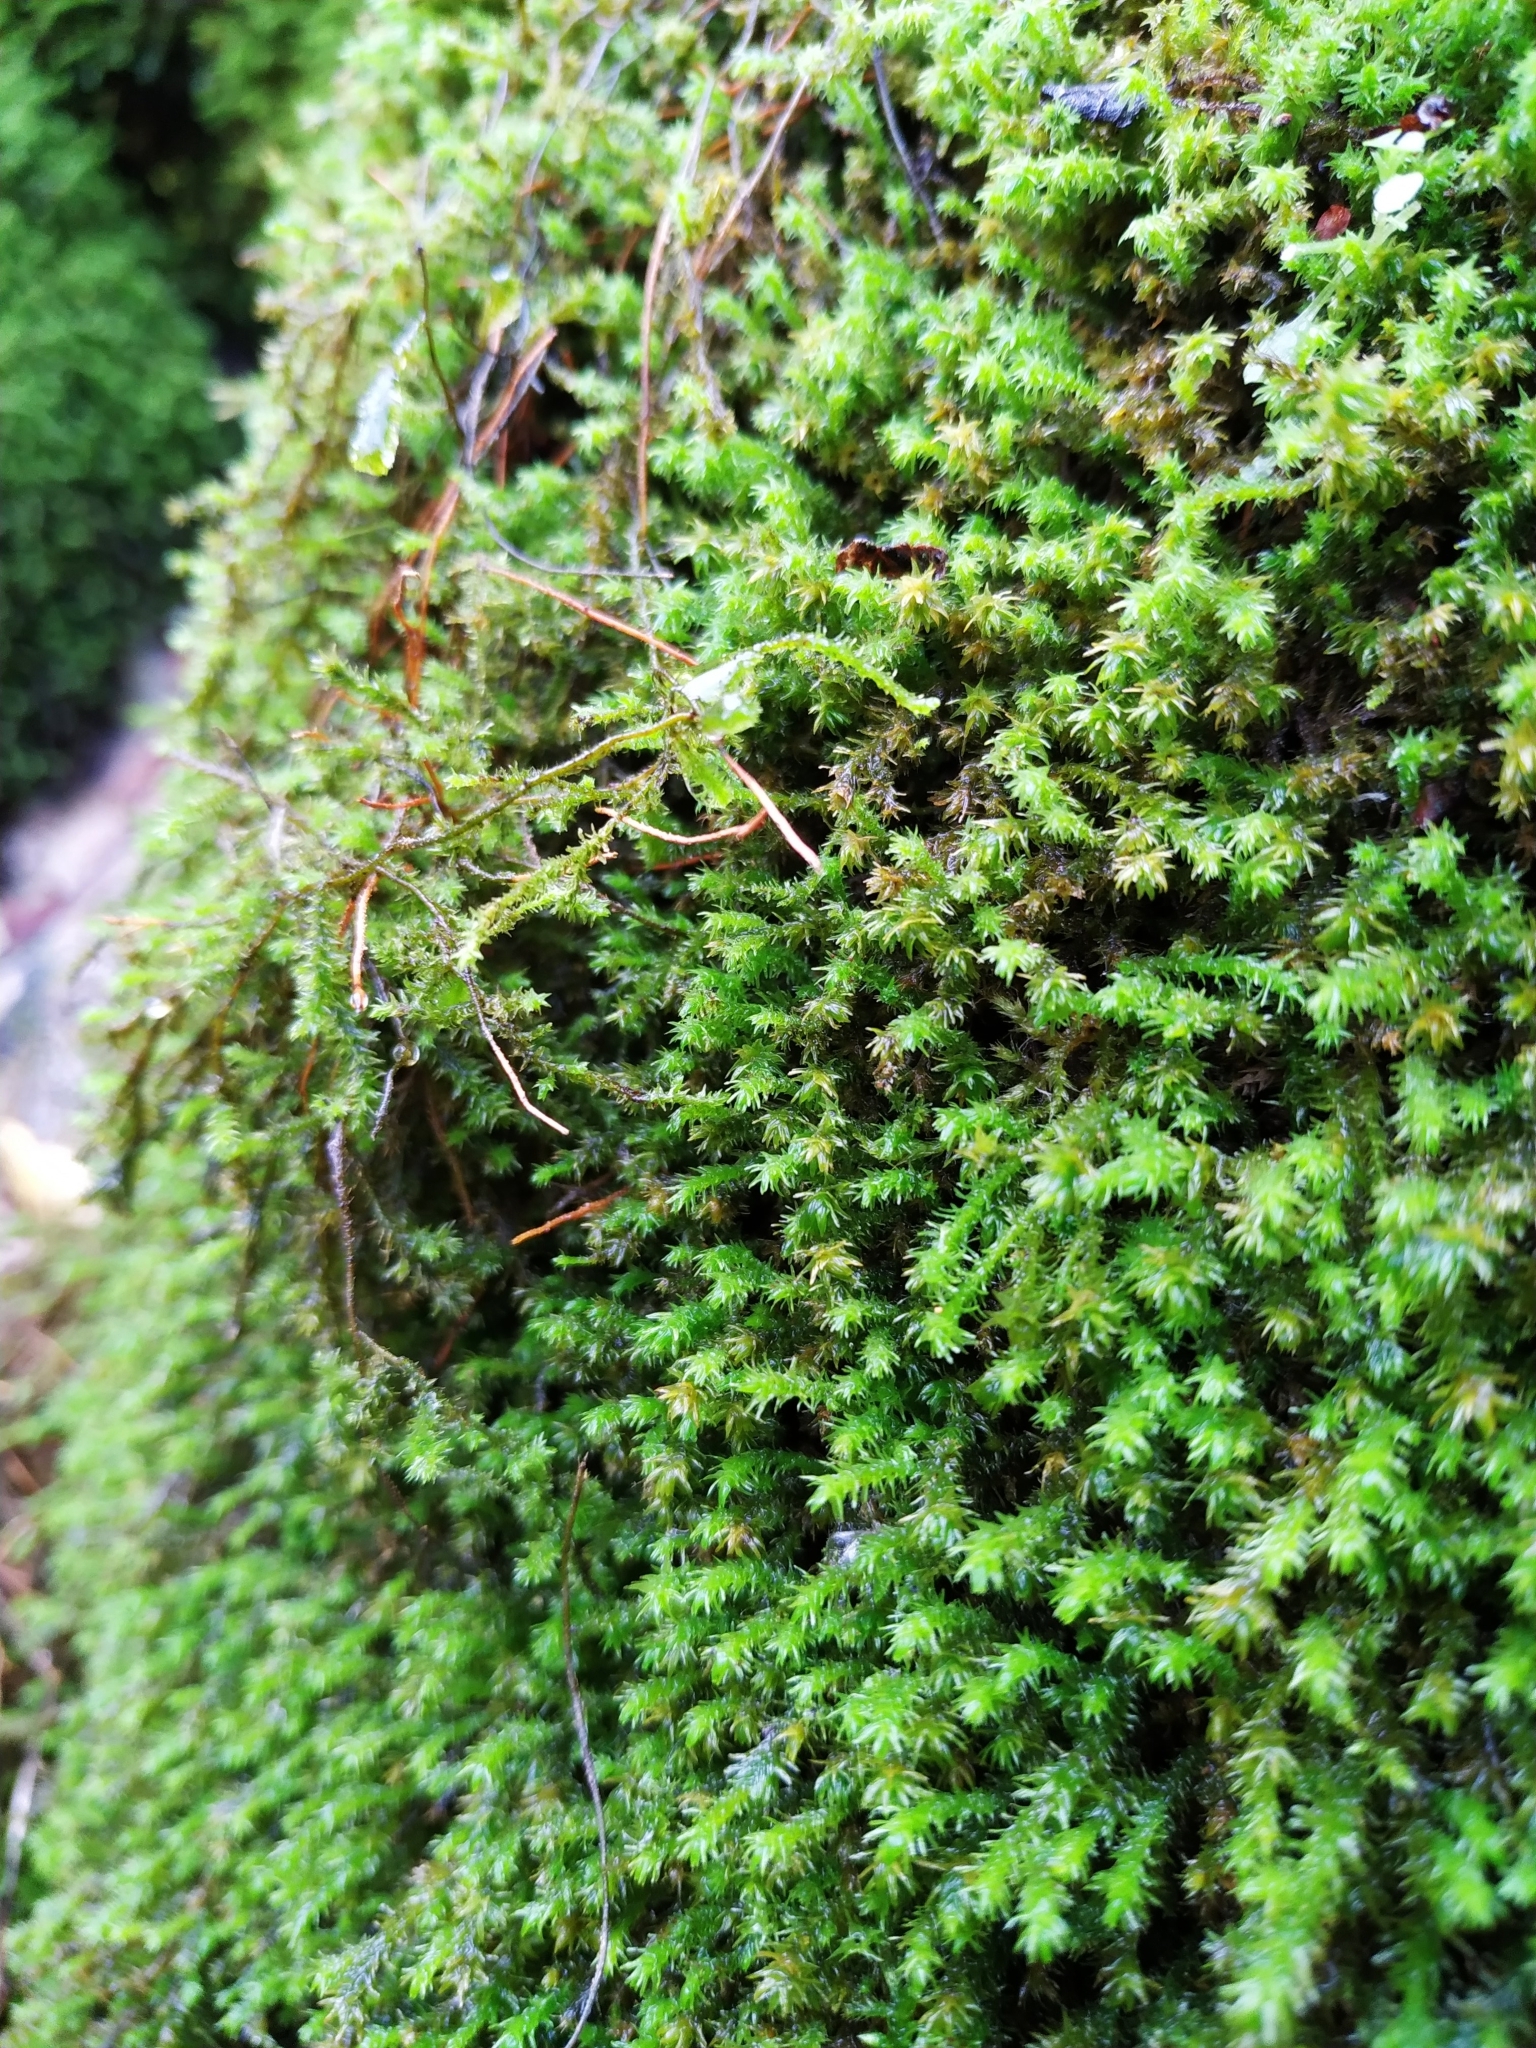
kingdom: Plantae
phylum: Bryophyta
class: Bryopsida
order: Hypnales
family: Anomodontaceae
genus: Anomodon
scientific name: Anomodon viticulosus
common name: Tall anomodon
